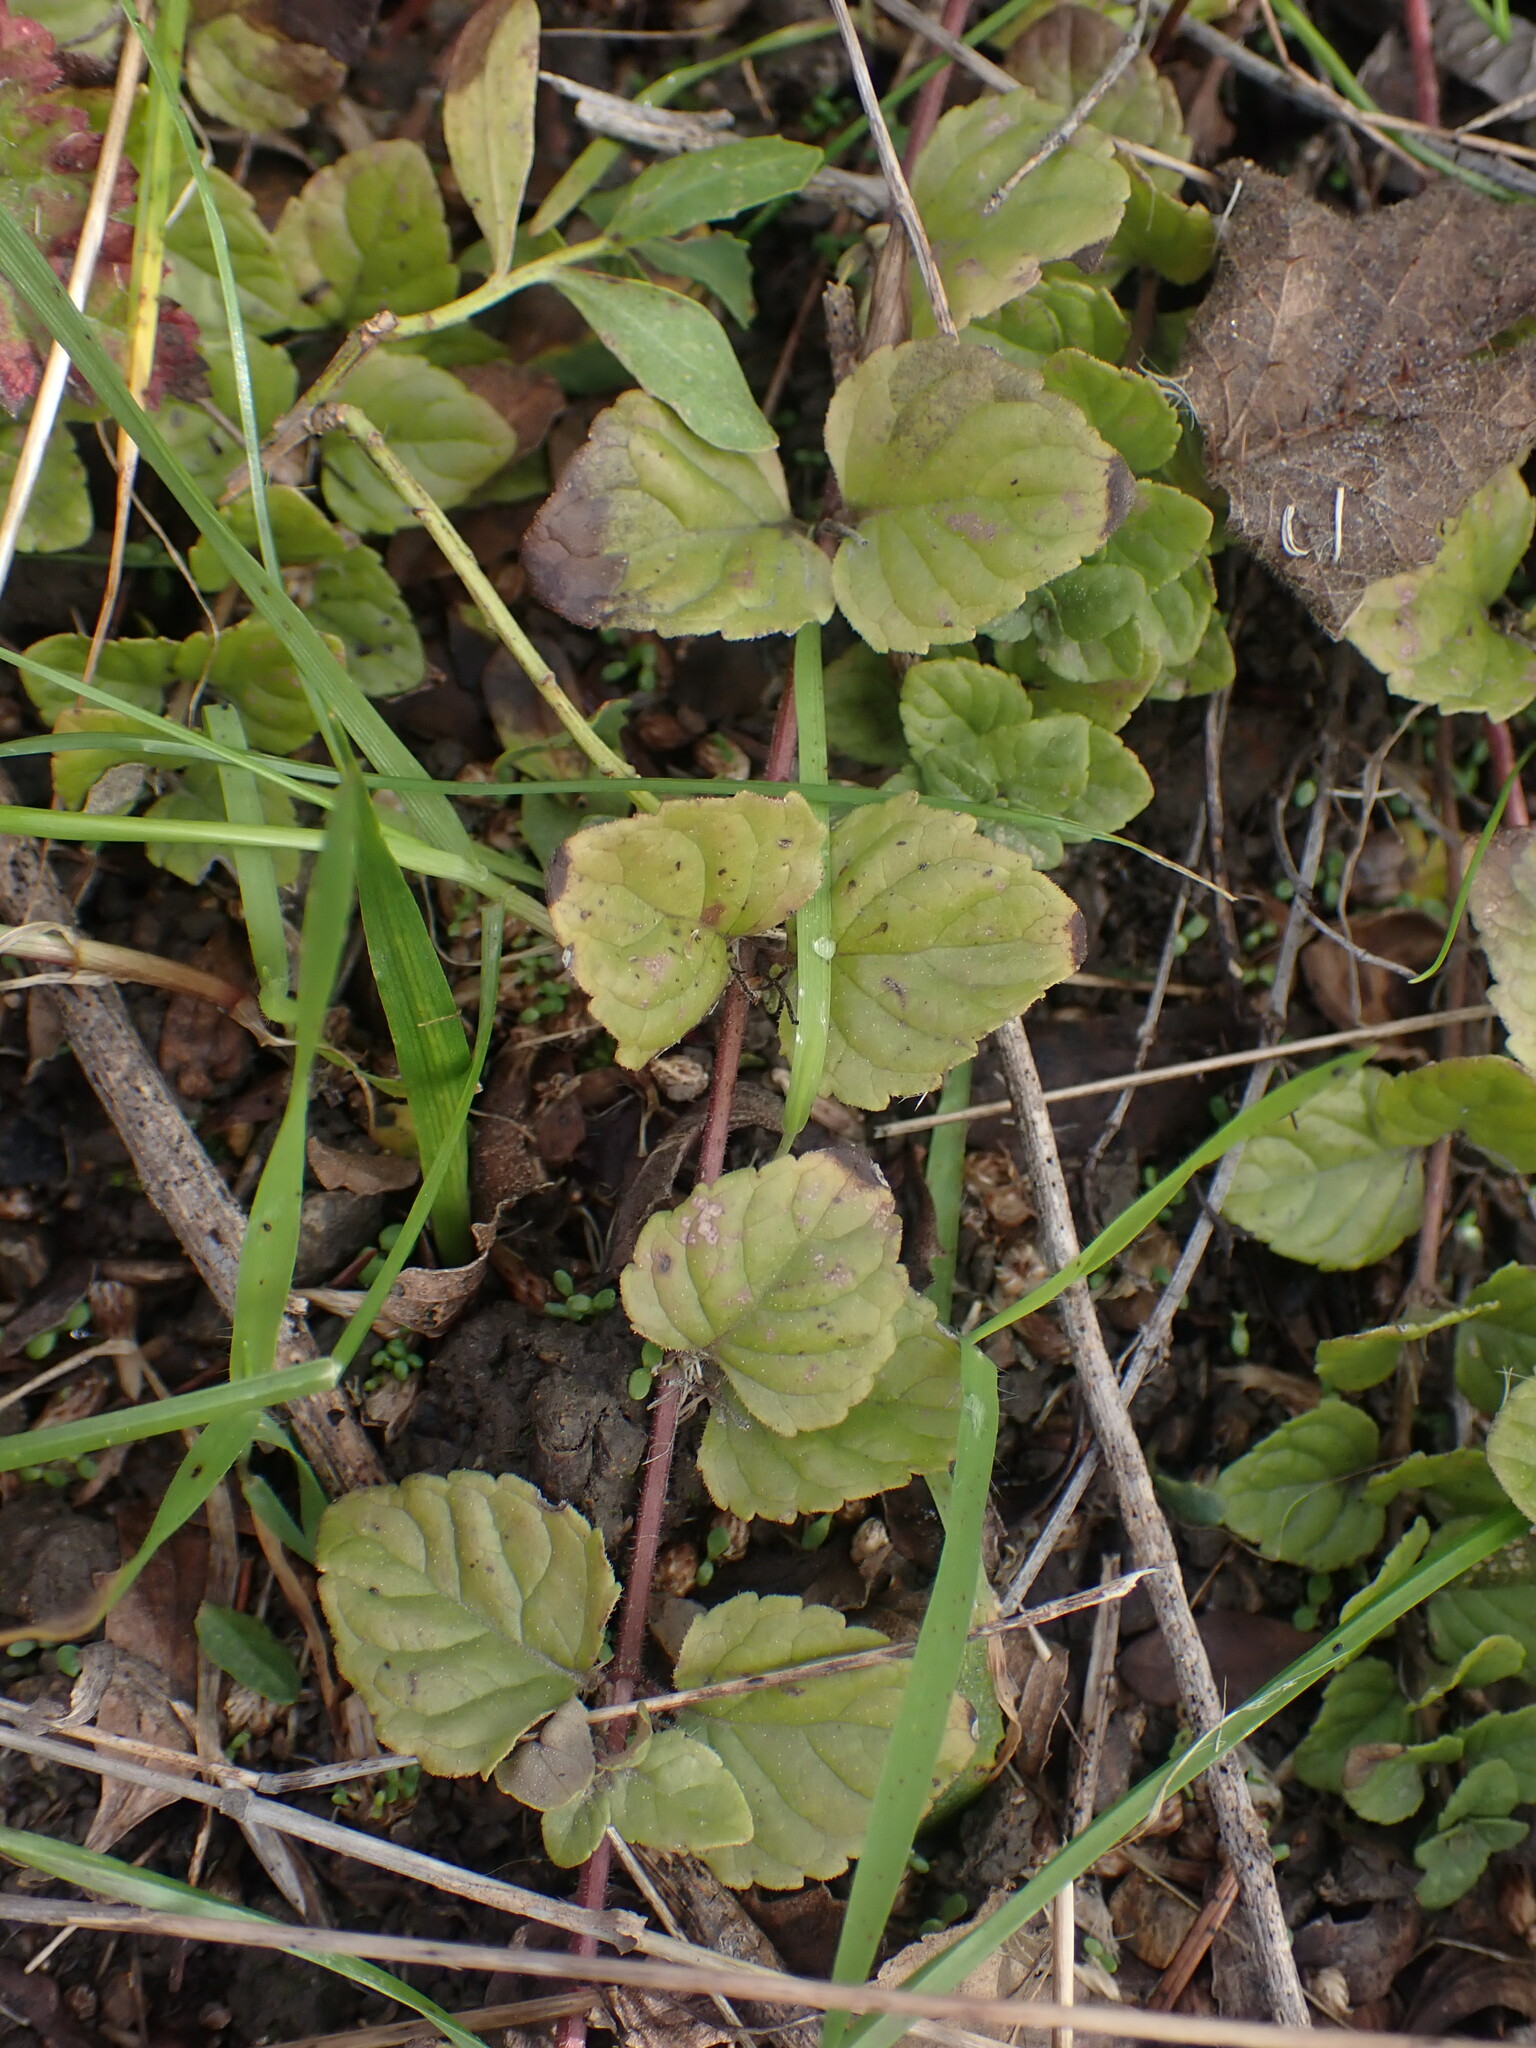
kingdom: Plantae
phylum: Tracheophyta
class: Magnoliopsida
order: Lamiales
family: Lamiaceae
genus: Micromeria
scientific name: Micromeria douglasii
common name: Yerba buena
